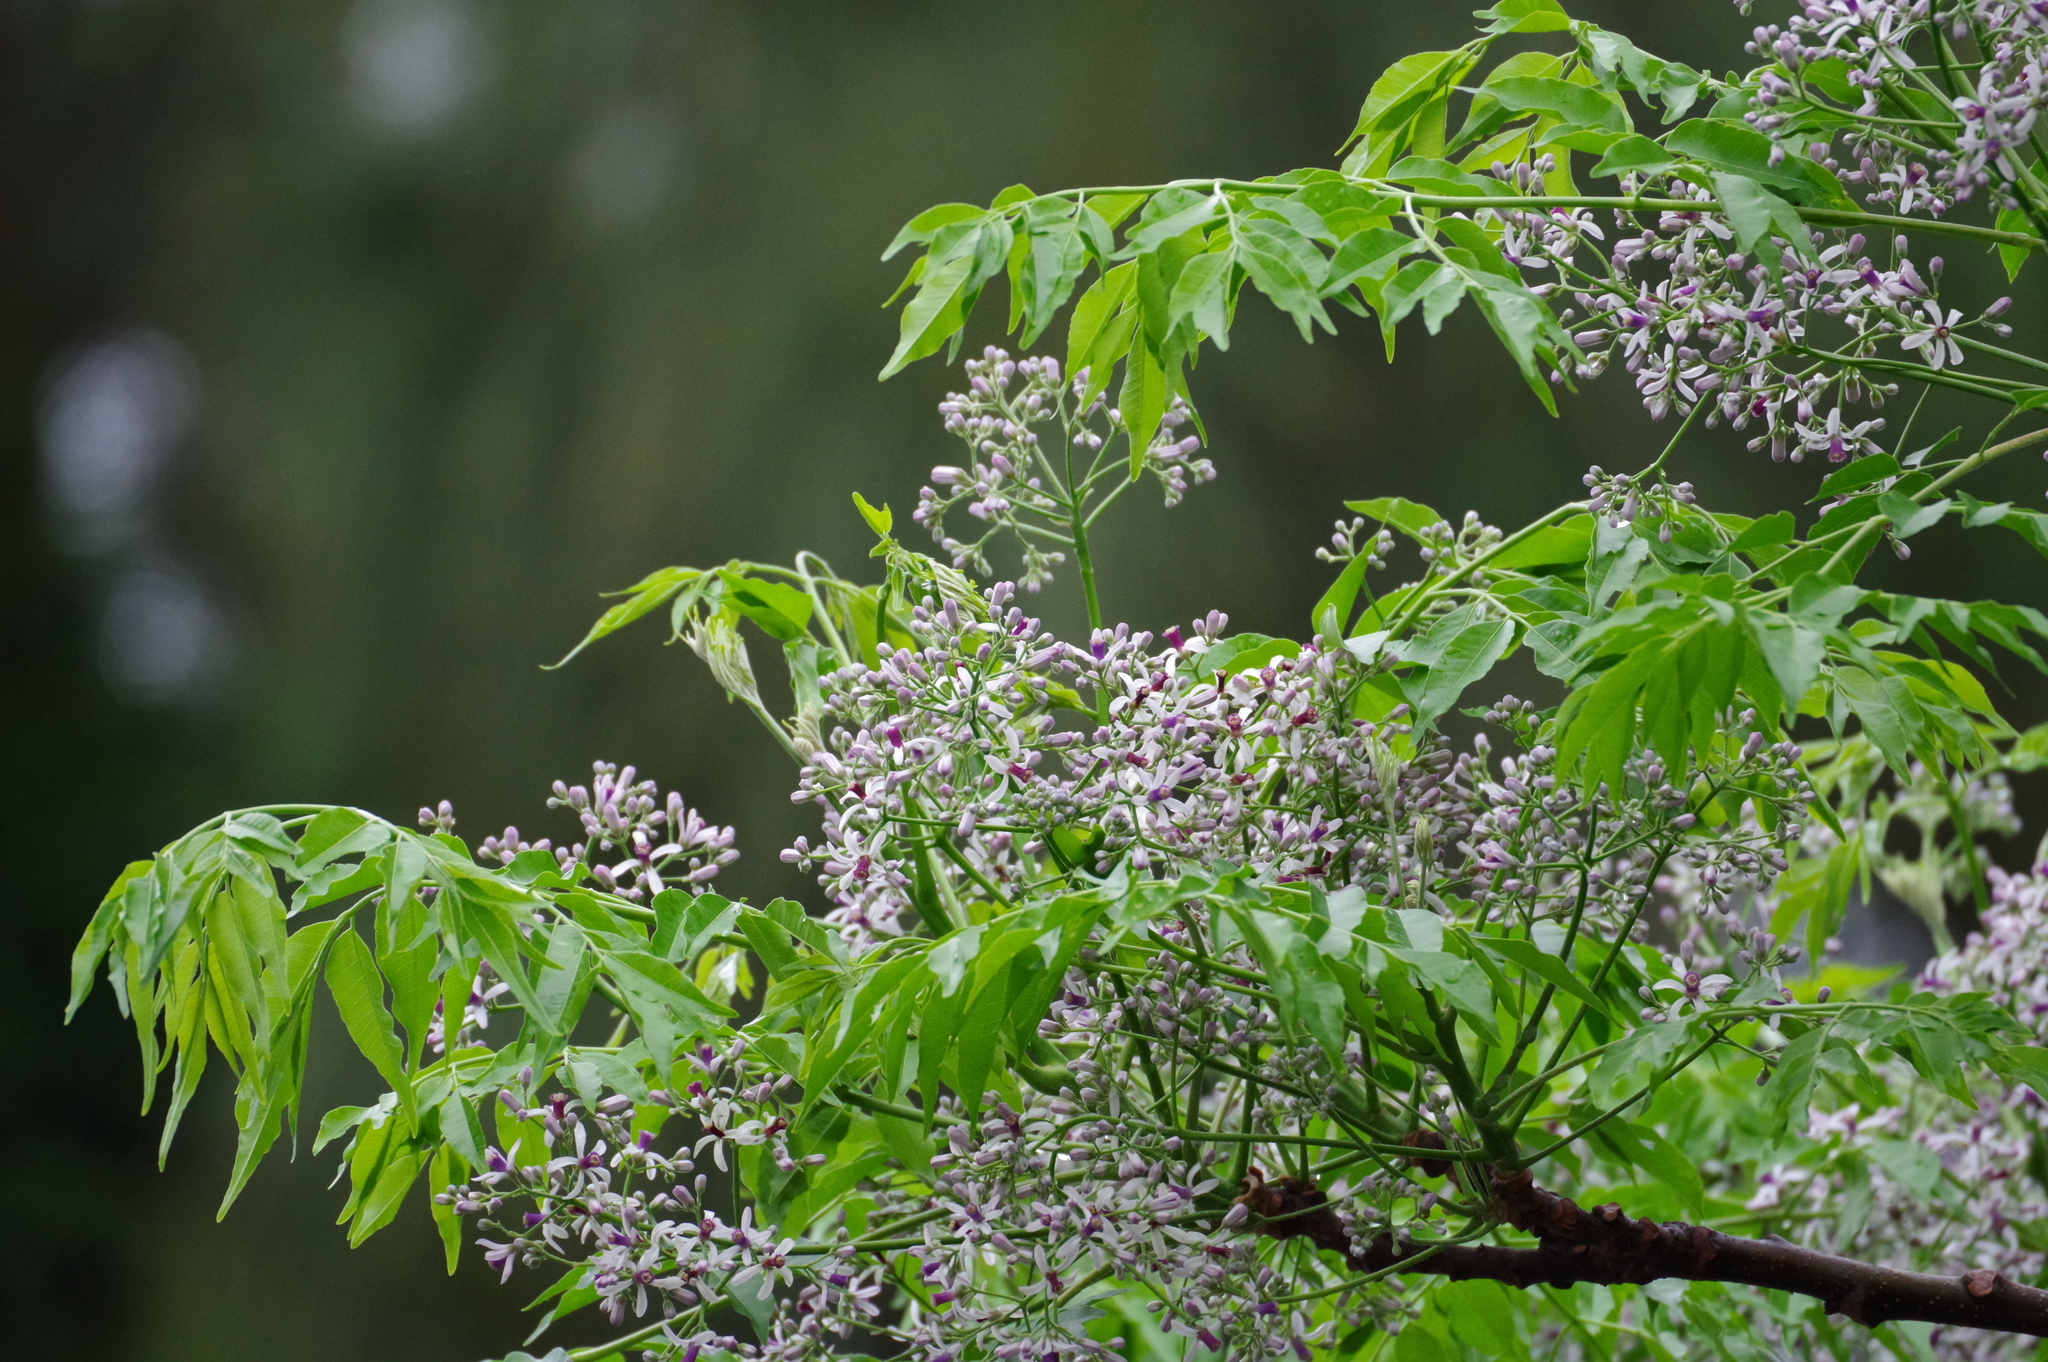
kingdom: Plantae
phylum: Tracheophyta
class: Magnoliopsida
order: Sapindales
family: Meliaceae
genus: Melia
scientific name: Melia azedarach
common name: Chinaberrytree
